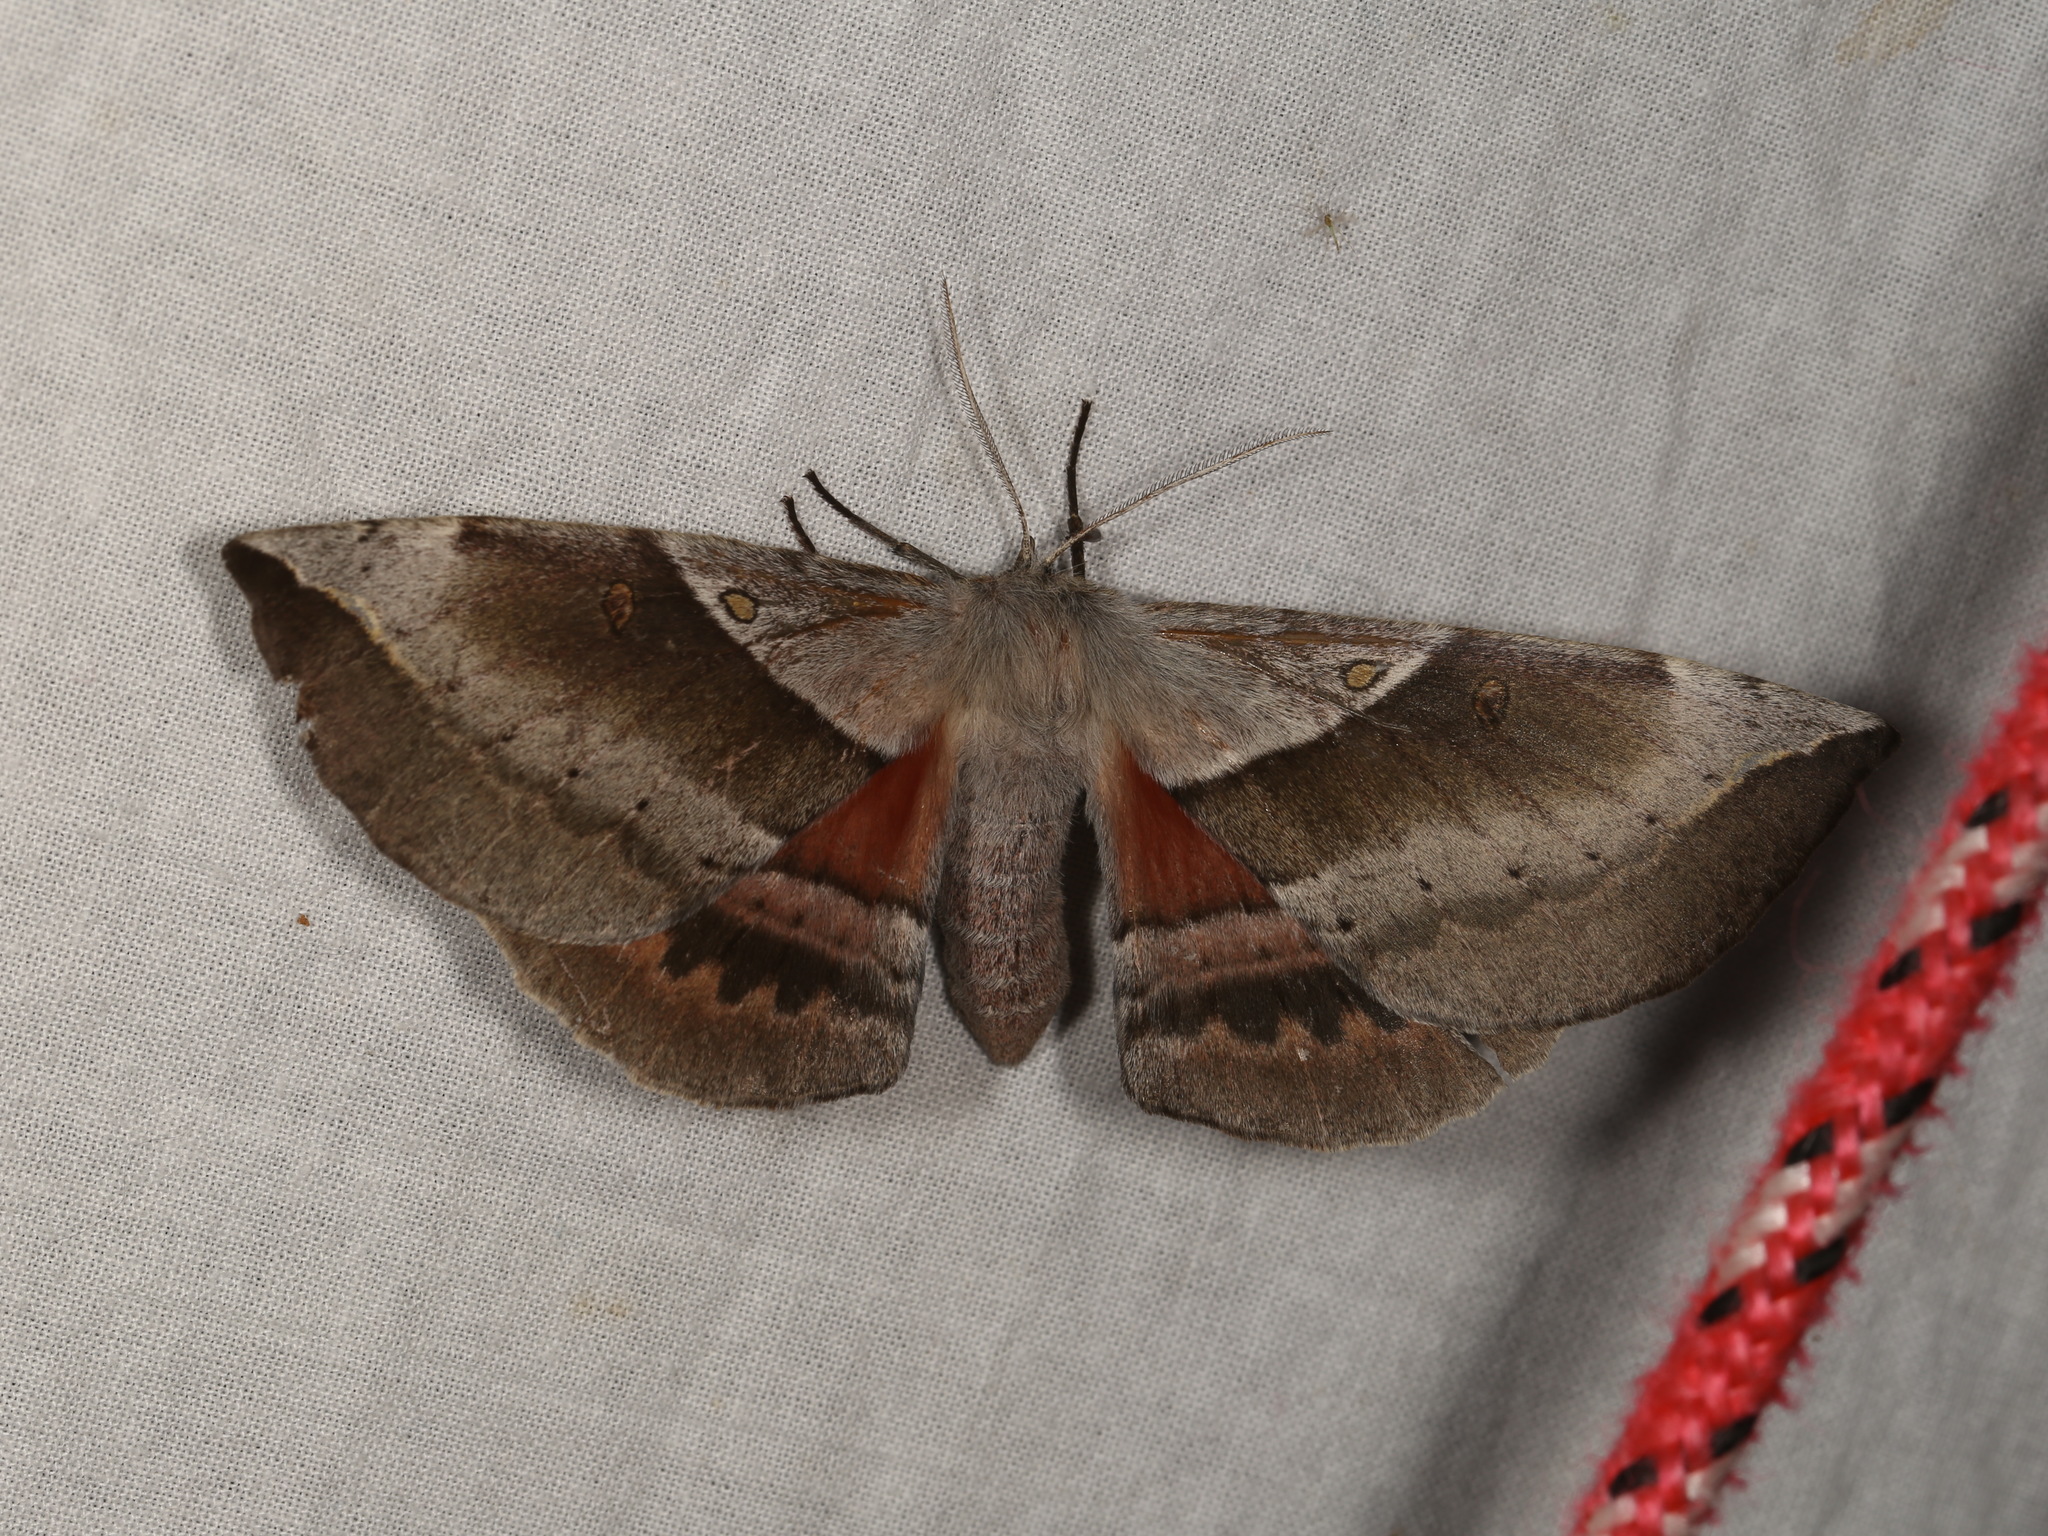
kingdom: Animalia
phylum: Arthropoda
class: Insecta
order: Lepidoptera
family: Anthelidae
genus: Chelepteryx
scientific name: Chelepteryx chalepteryx
